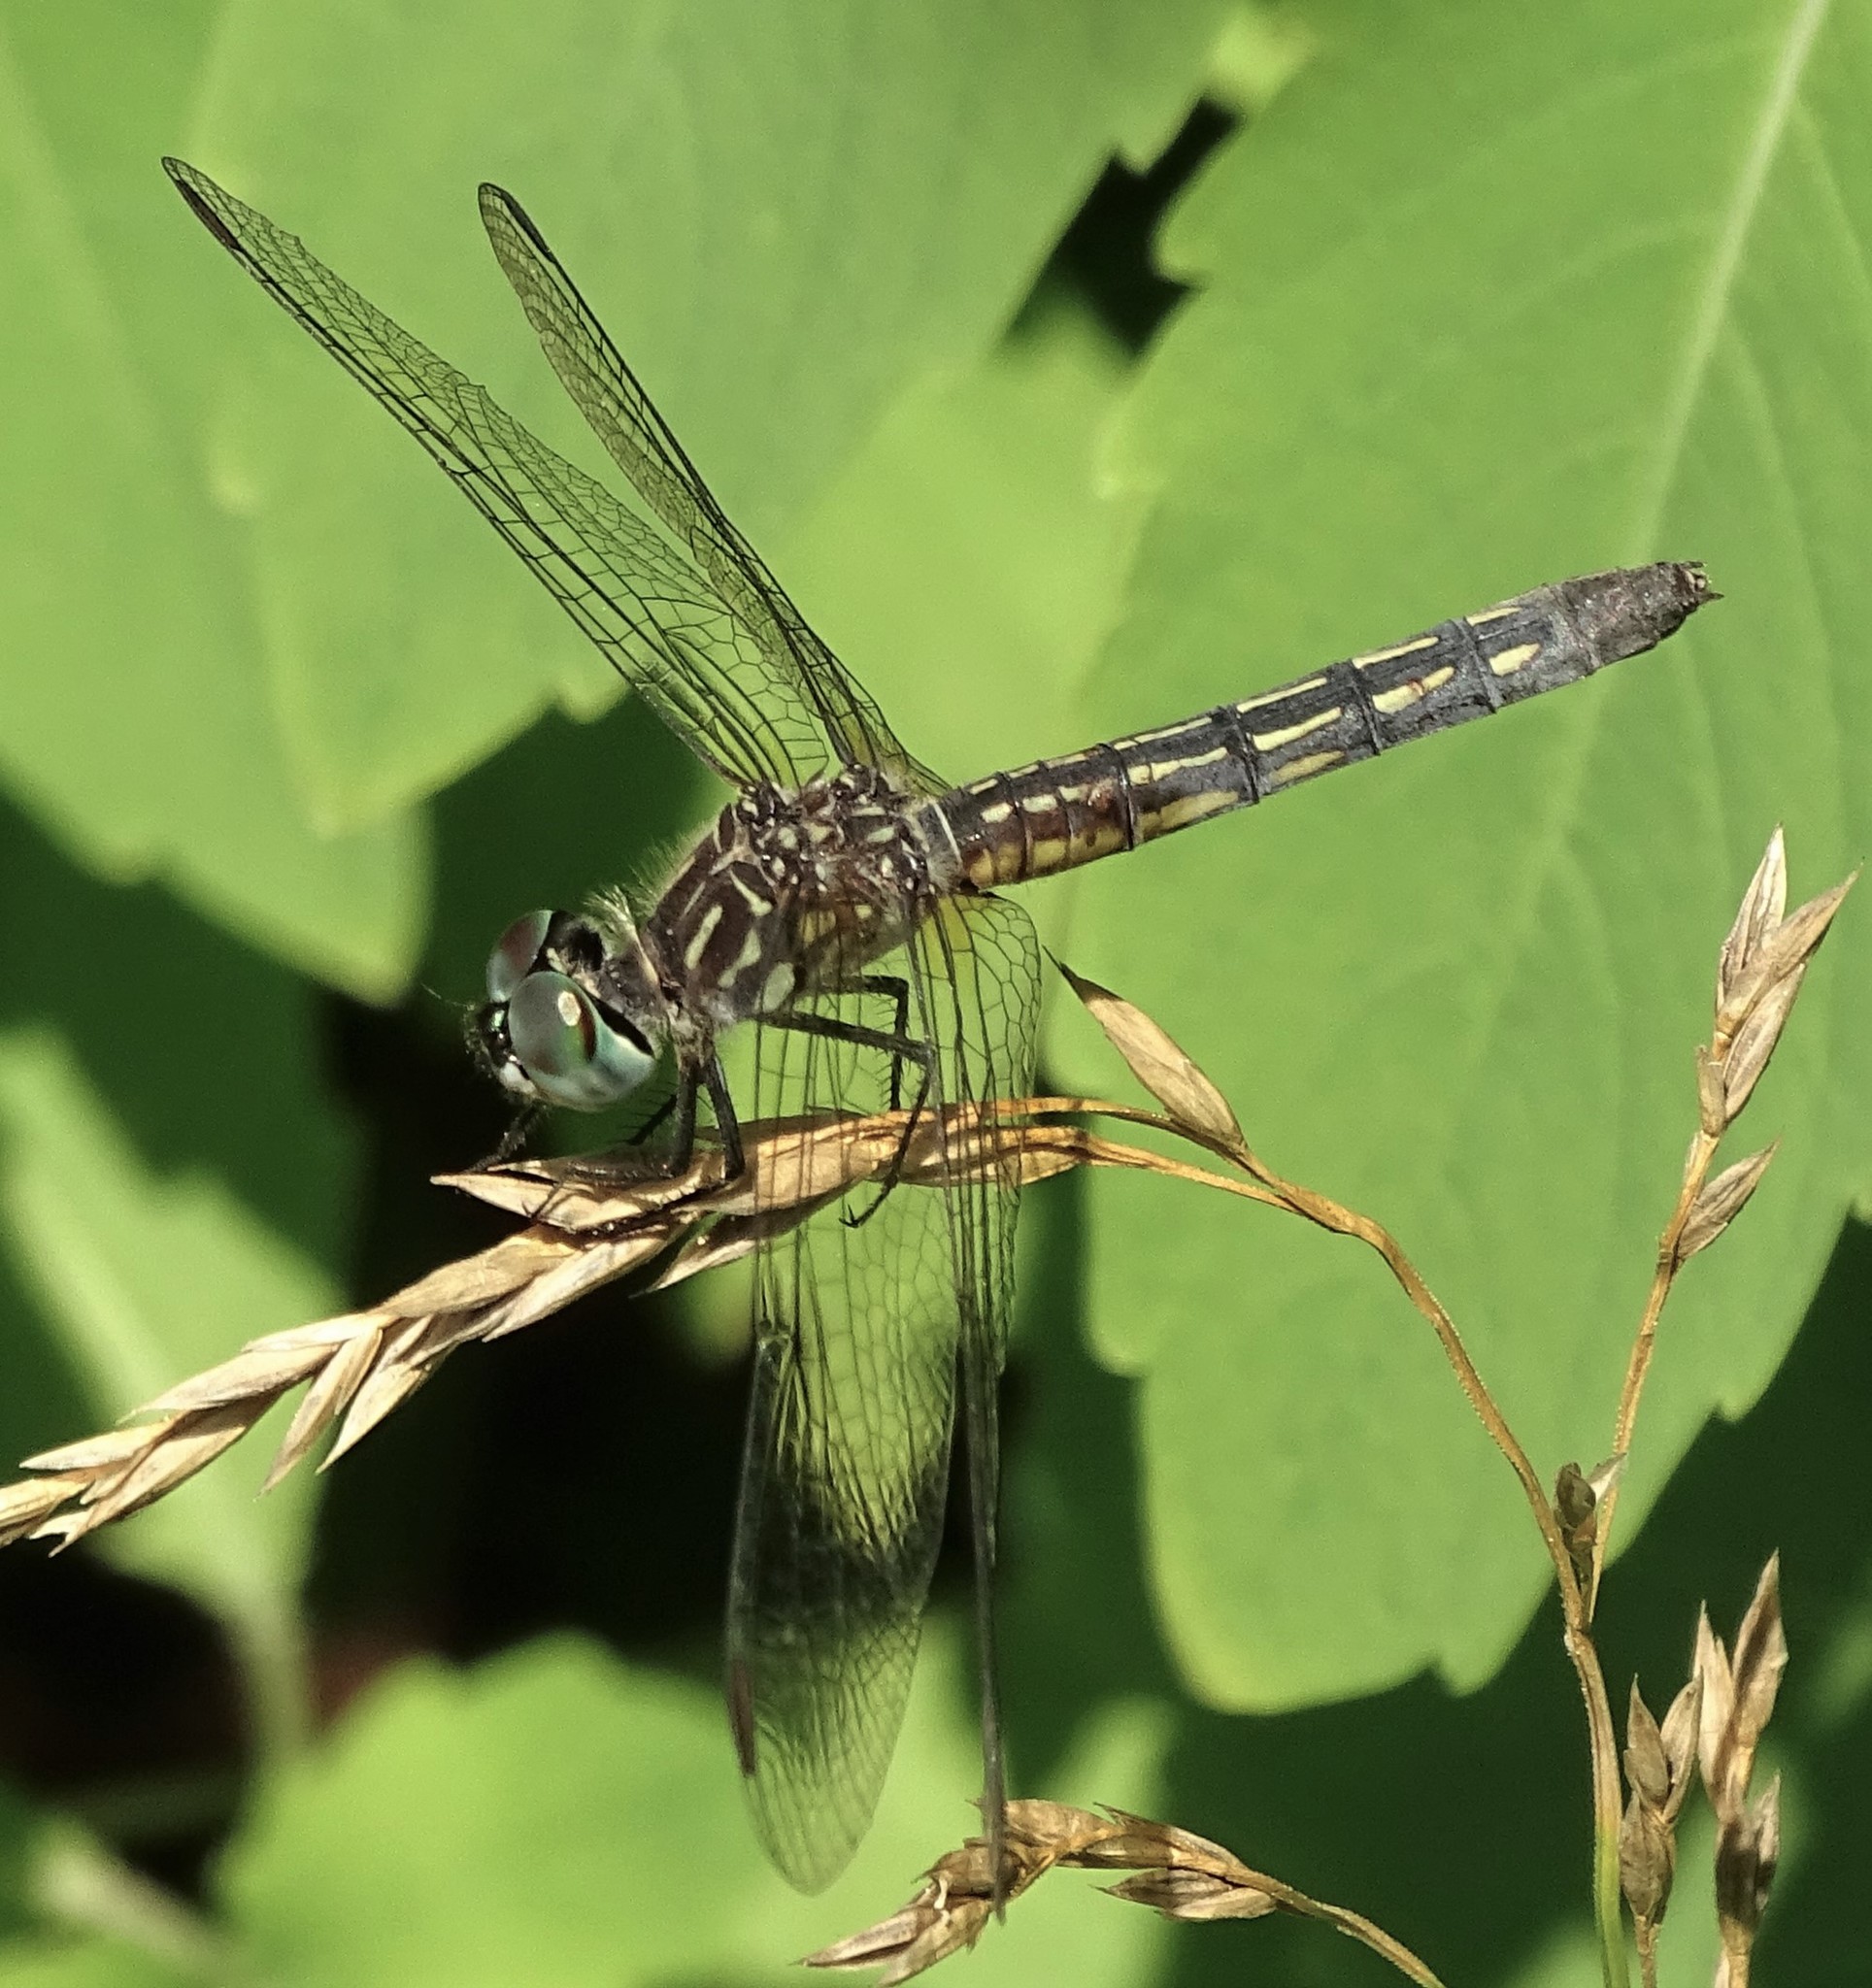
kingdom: Animalia
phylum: Arthropoda
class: Insecta
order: Odonata
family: Libellulidae
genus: Pachydiplax
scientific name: Pachydiplax longipennis
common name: Blue dasher
